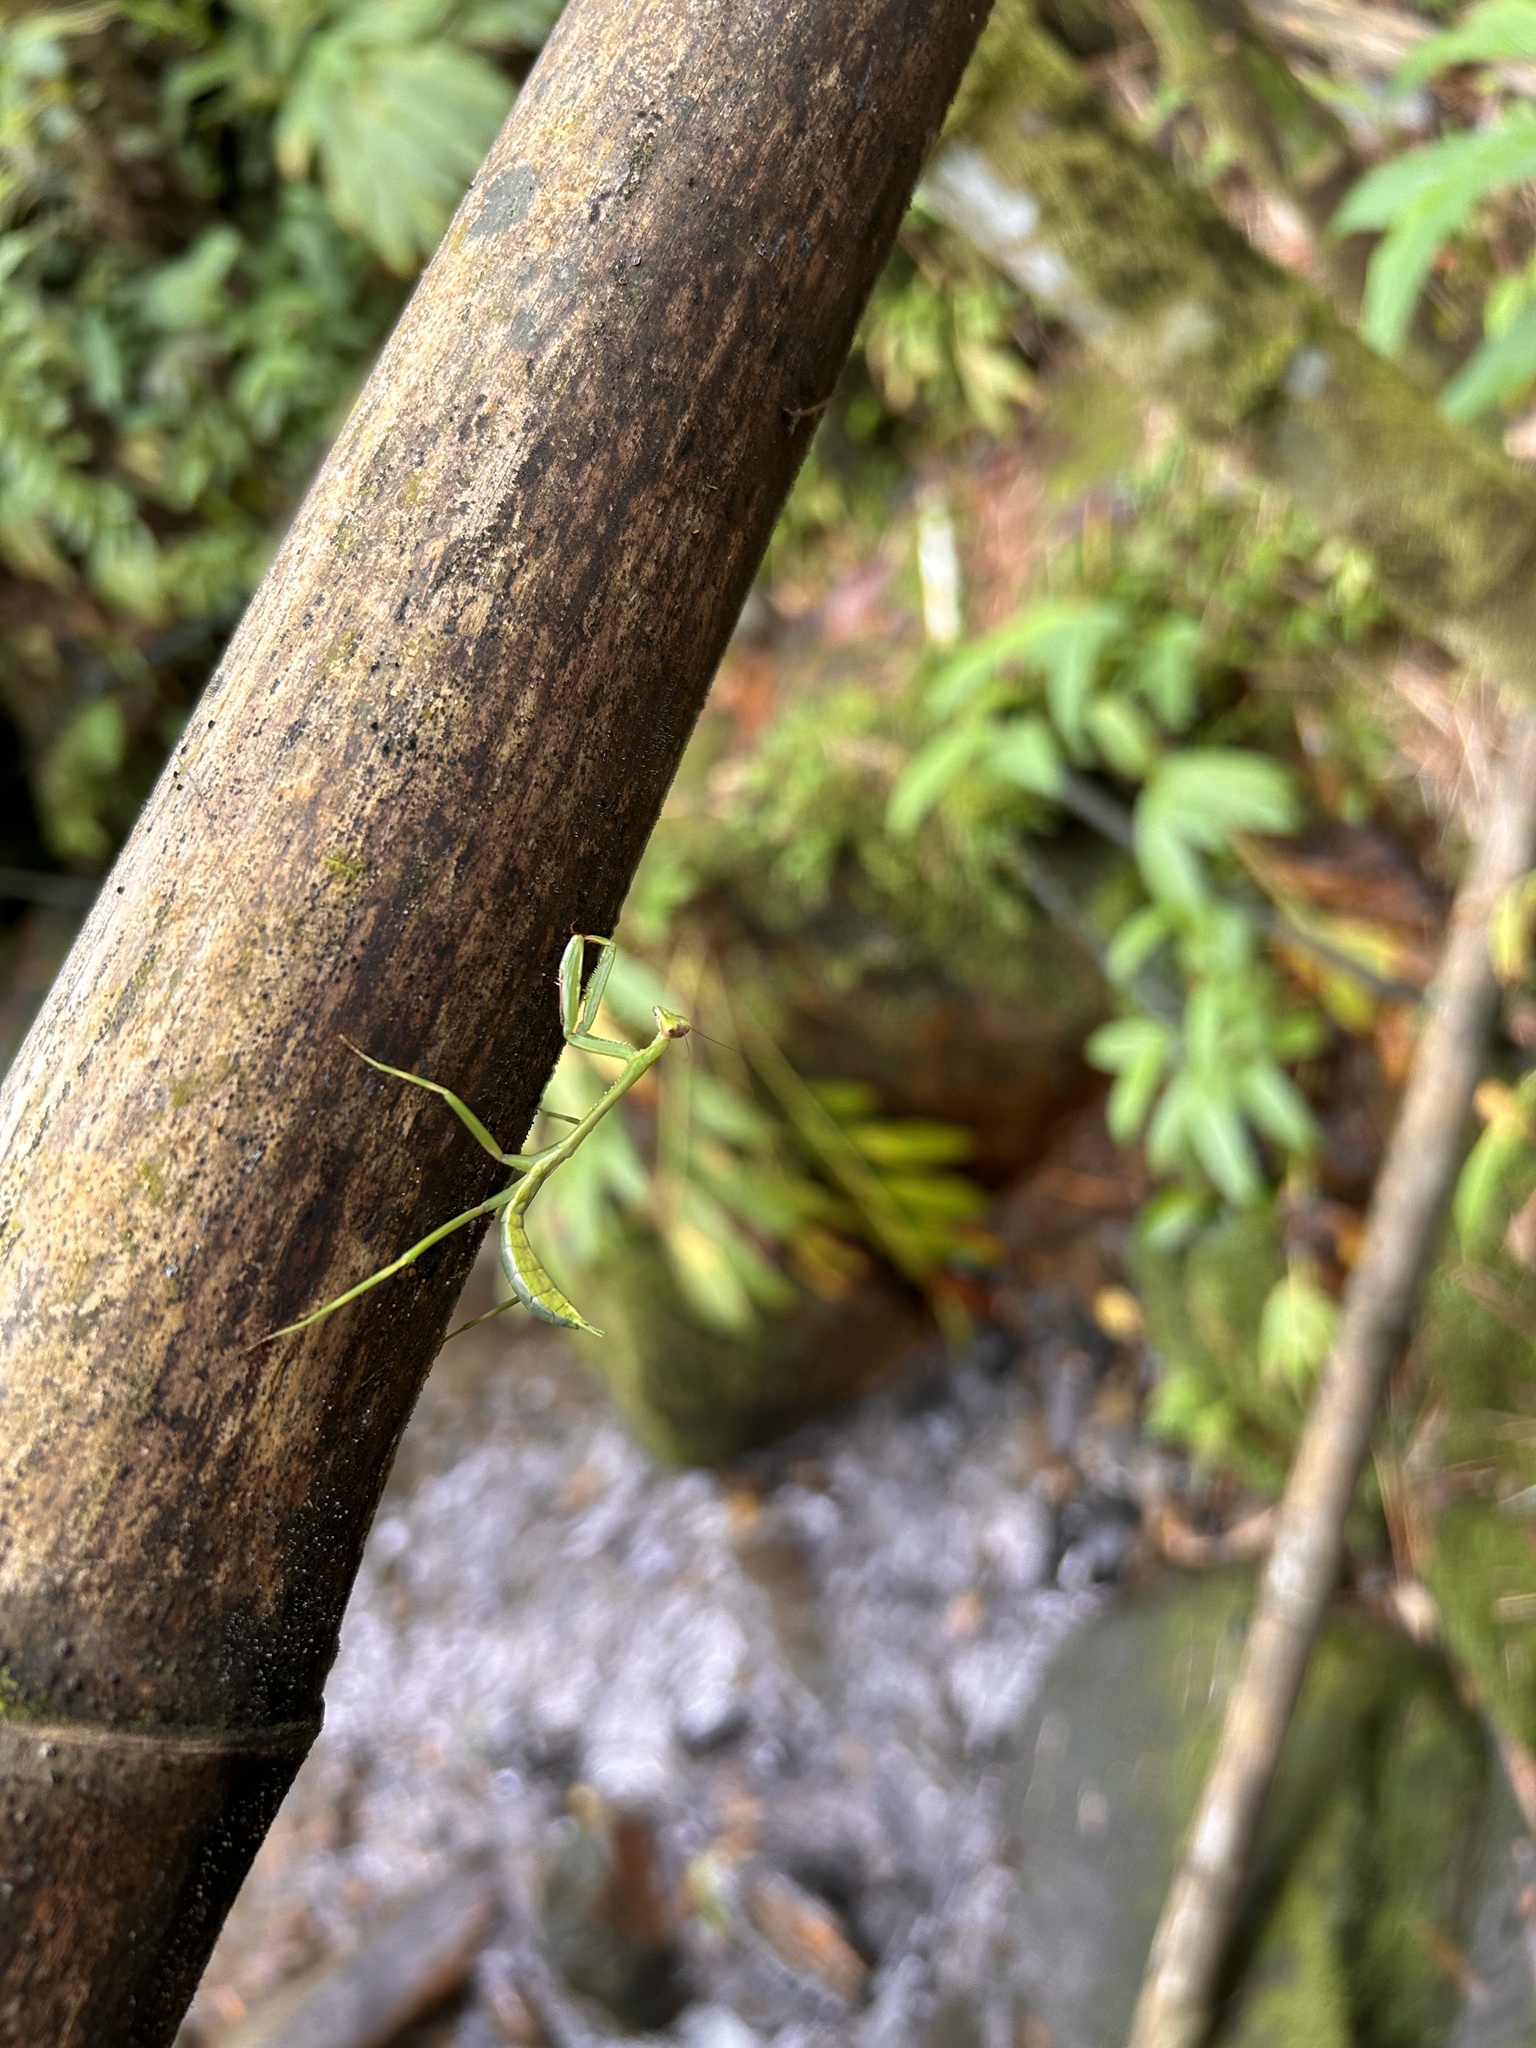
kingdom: Animalia
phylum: Arthropoda
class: Insecta
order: Mantodea
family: Mantidae
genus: Stagmomantis
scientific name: Stagmomantis parvidentata
